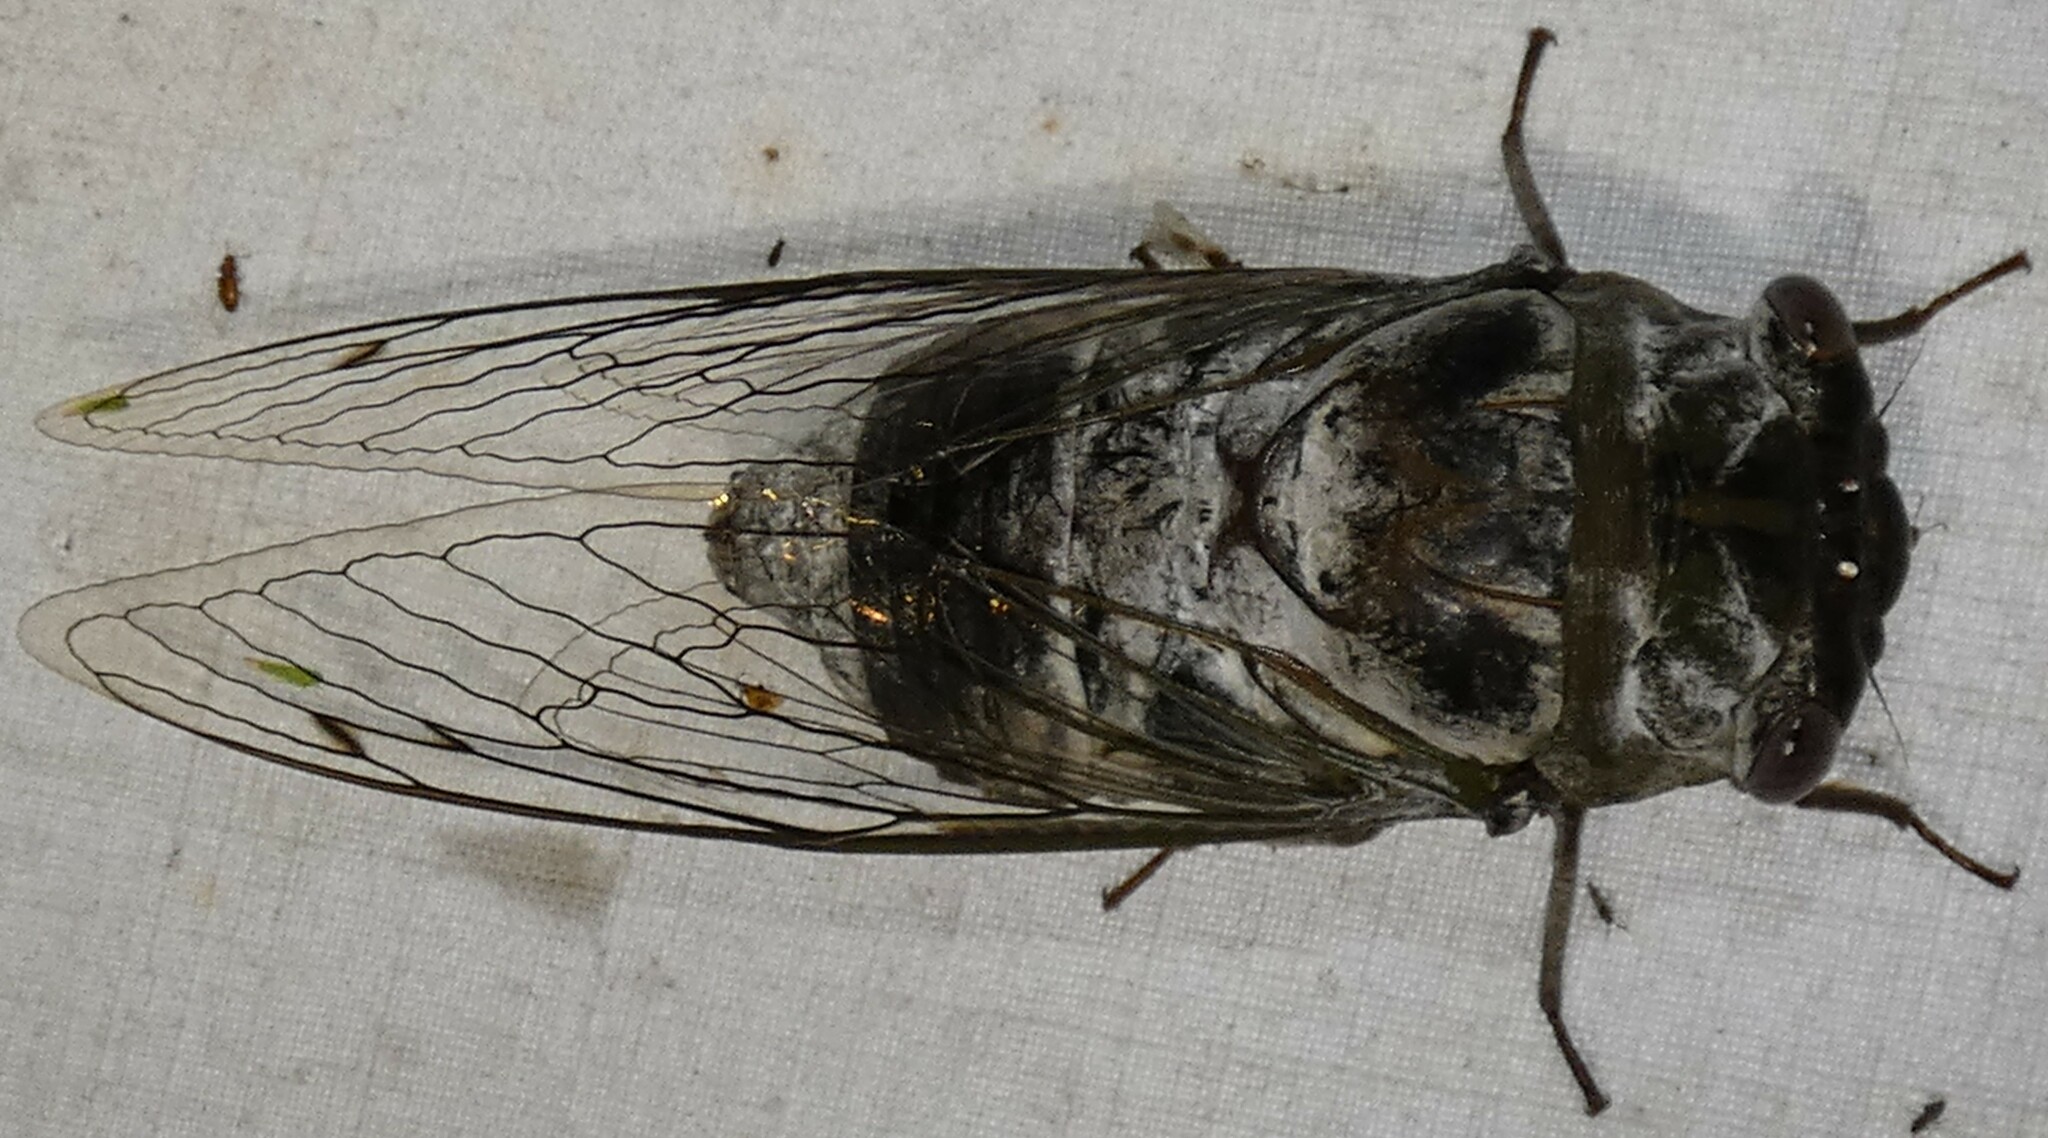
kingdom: Animalia
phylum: Arthropoda
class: Insecta
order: Hemiptera
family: Cicadidae
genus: Diceroprocta
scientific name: Diceroprocta grossa
